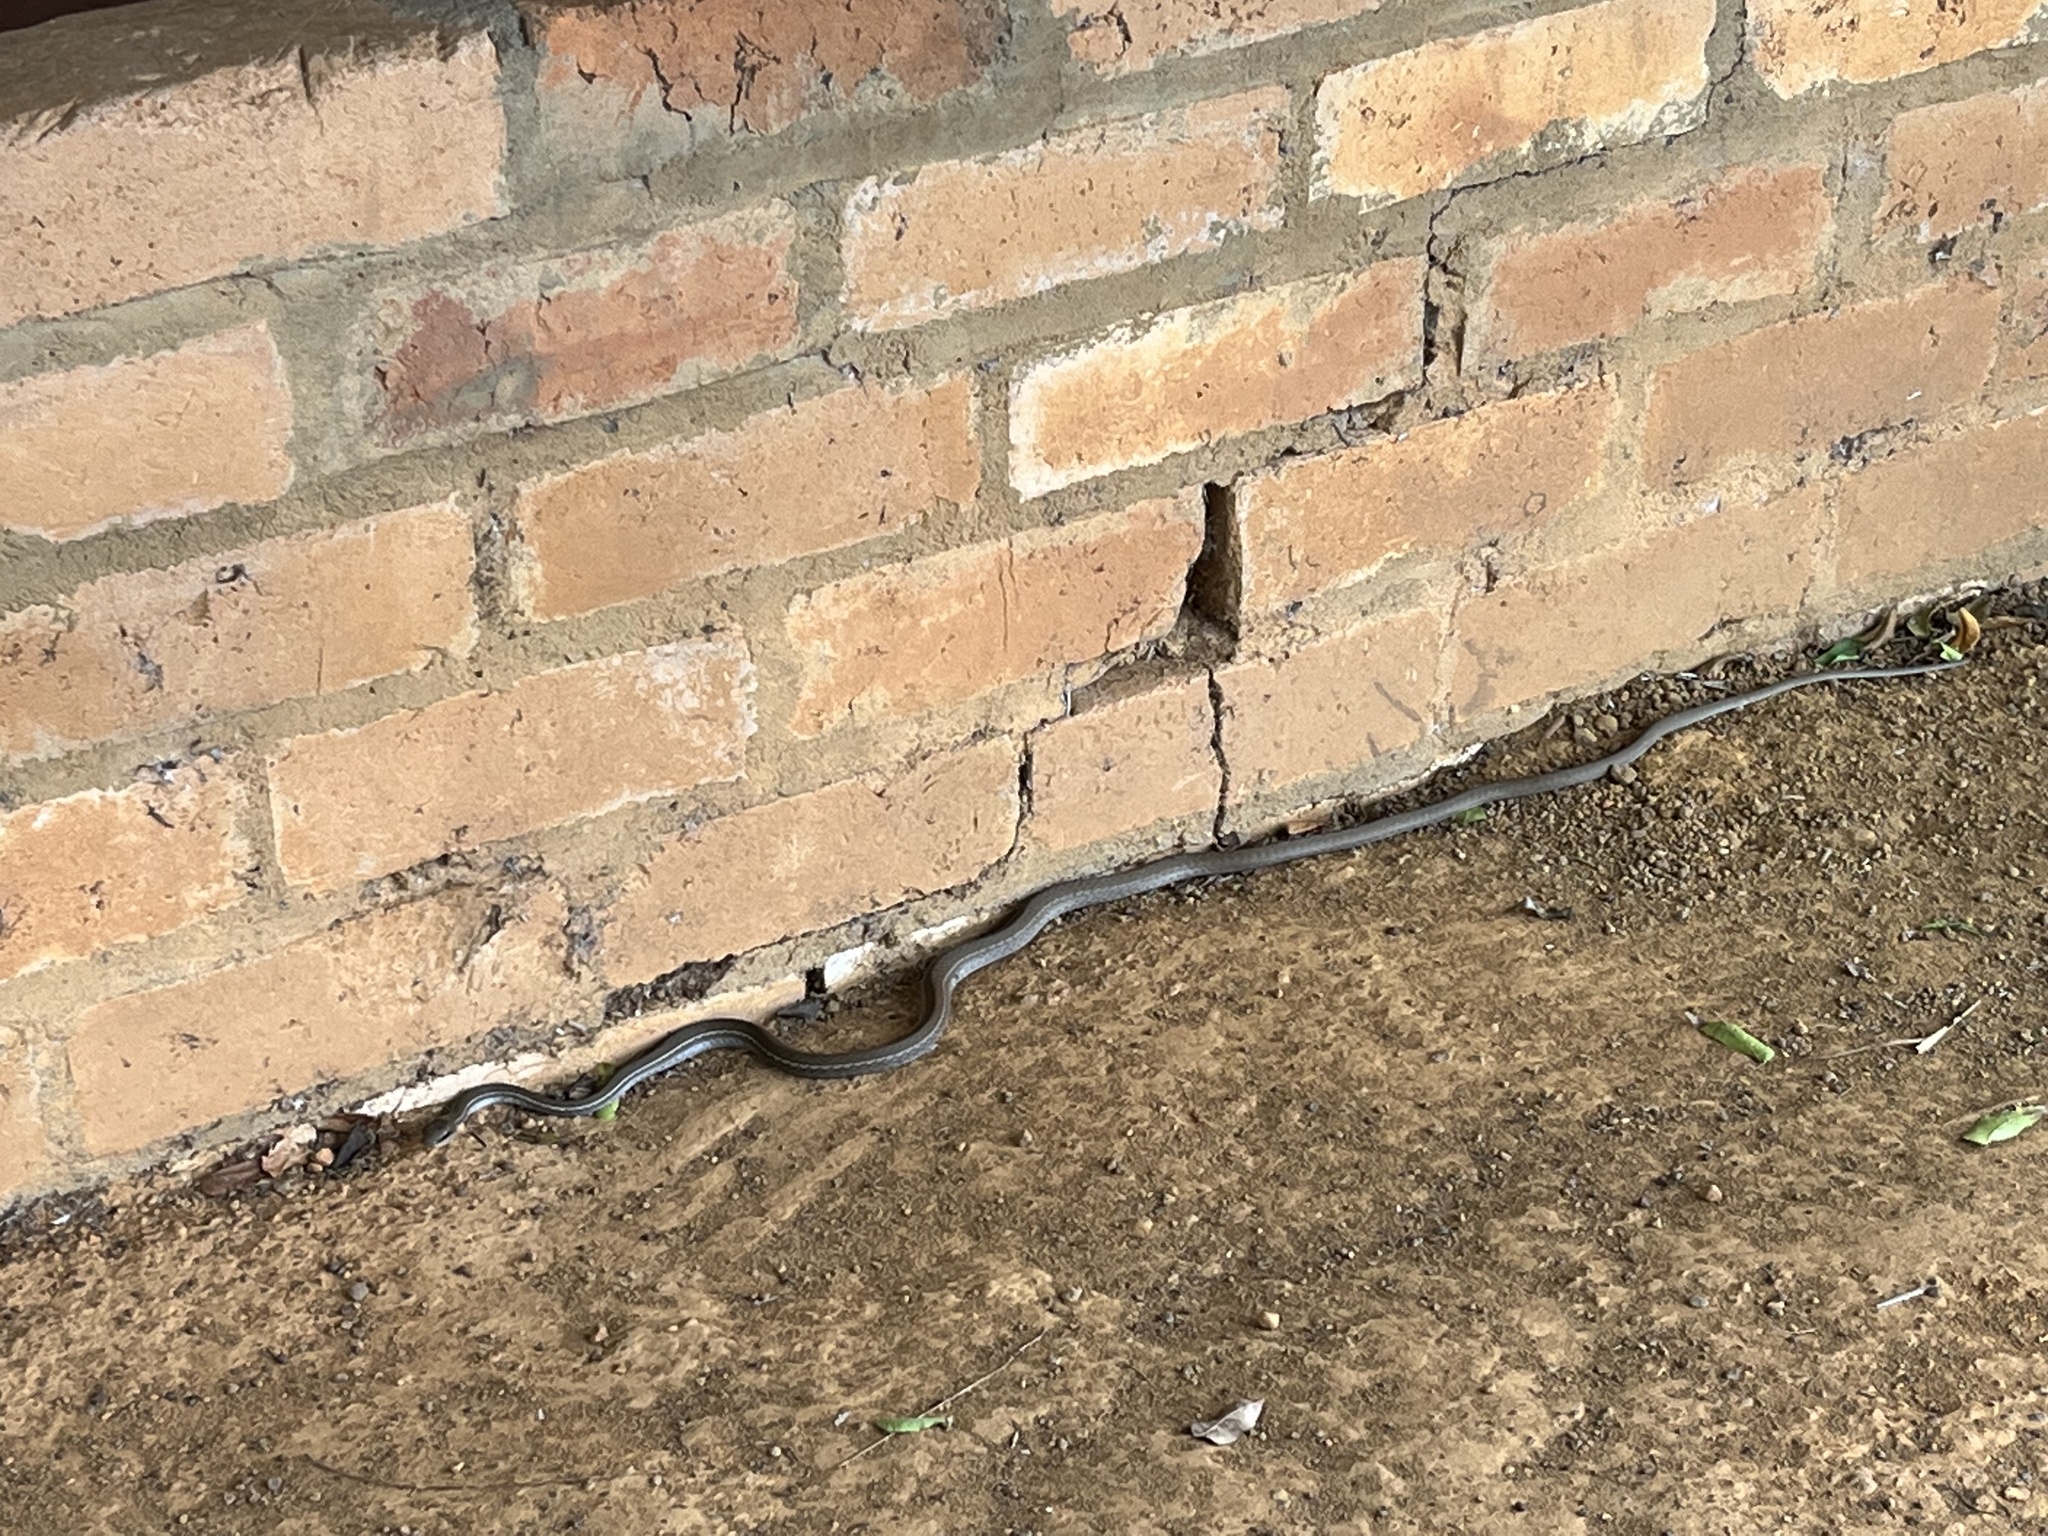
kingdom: Animalia
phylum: Chordata
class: Squamata
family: Colubridae
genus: Mastigodryas
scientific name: Mastigodryas boddaerti
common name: Boddaert's tropical racer
